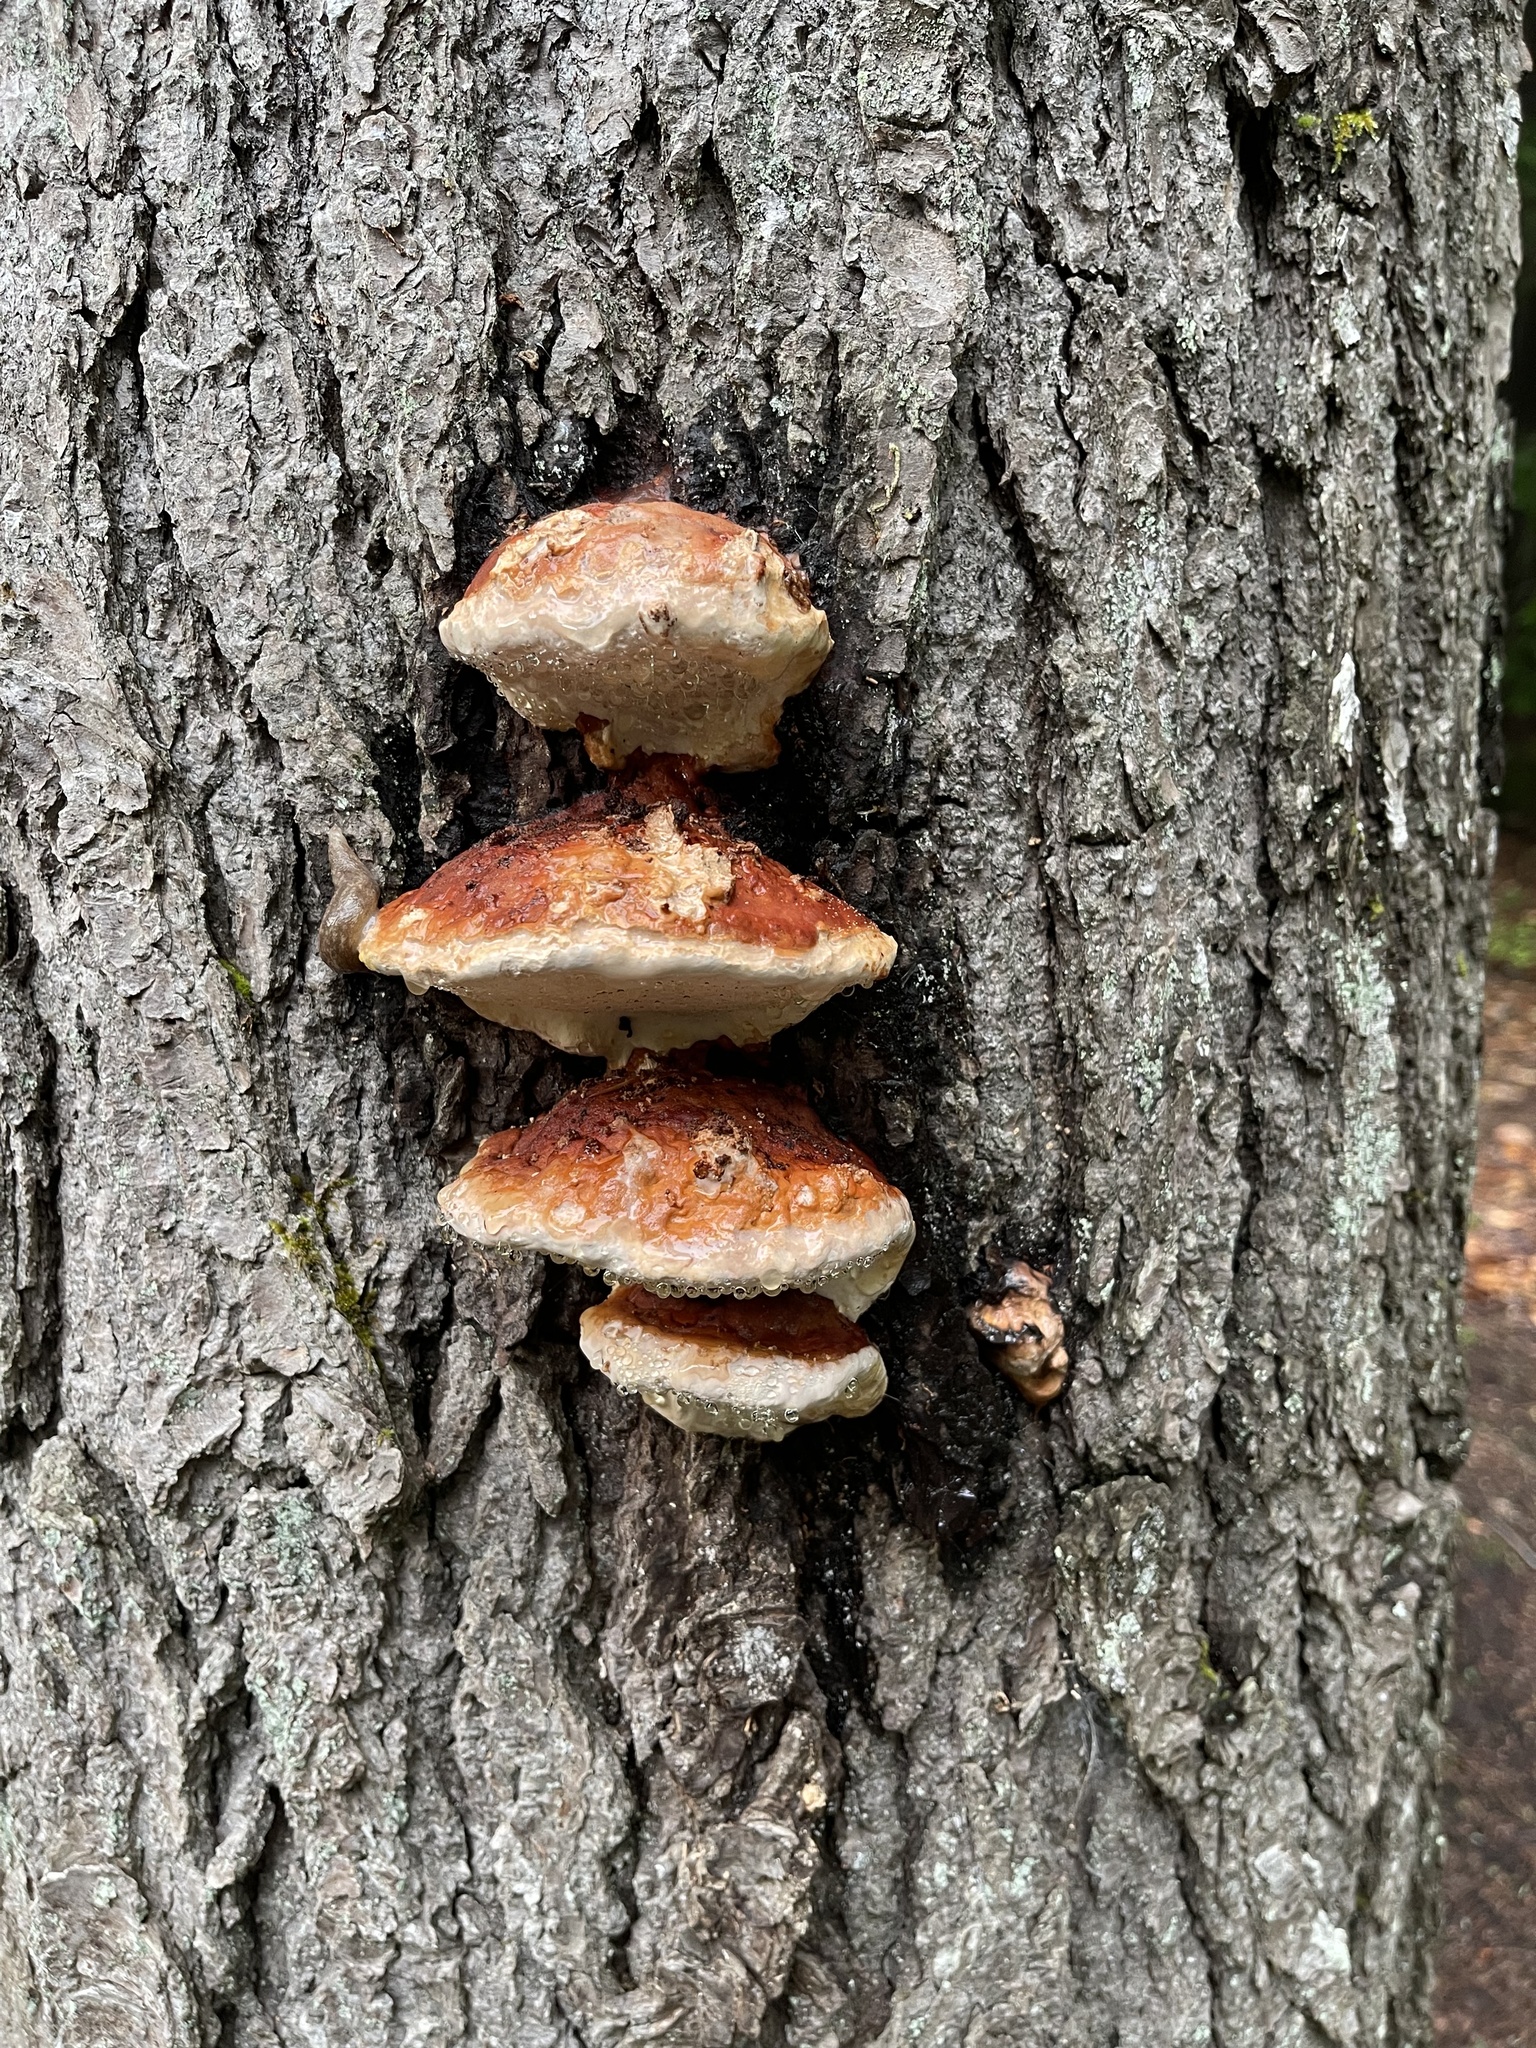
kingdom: Fungi
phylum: Basidiomycota
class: Agaricomycetes
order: Polyporales
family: Fomitopsidaceae
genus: Fomitopsis
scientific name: Fomitopsis mounceae
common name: Northern red belt
